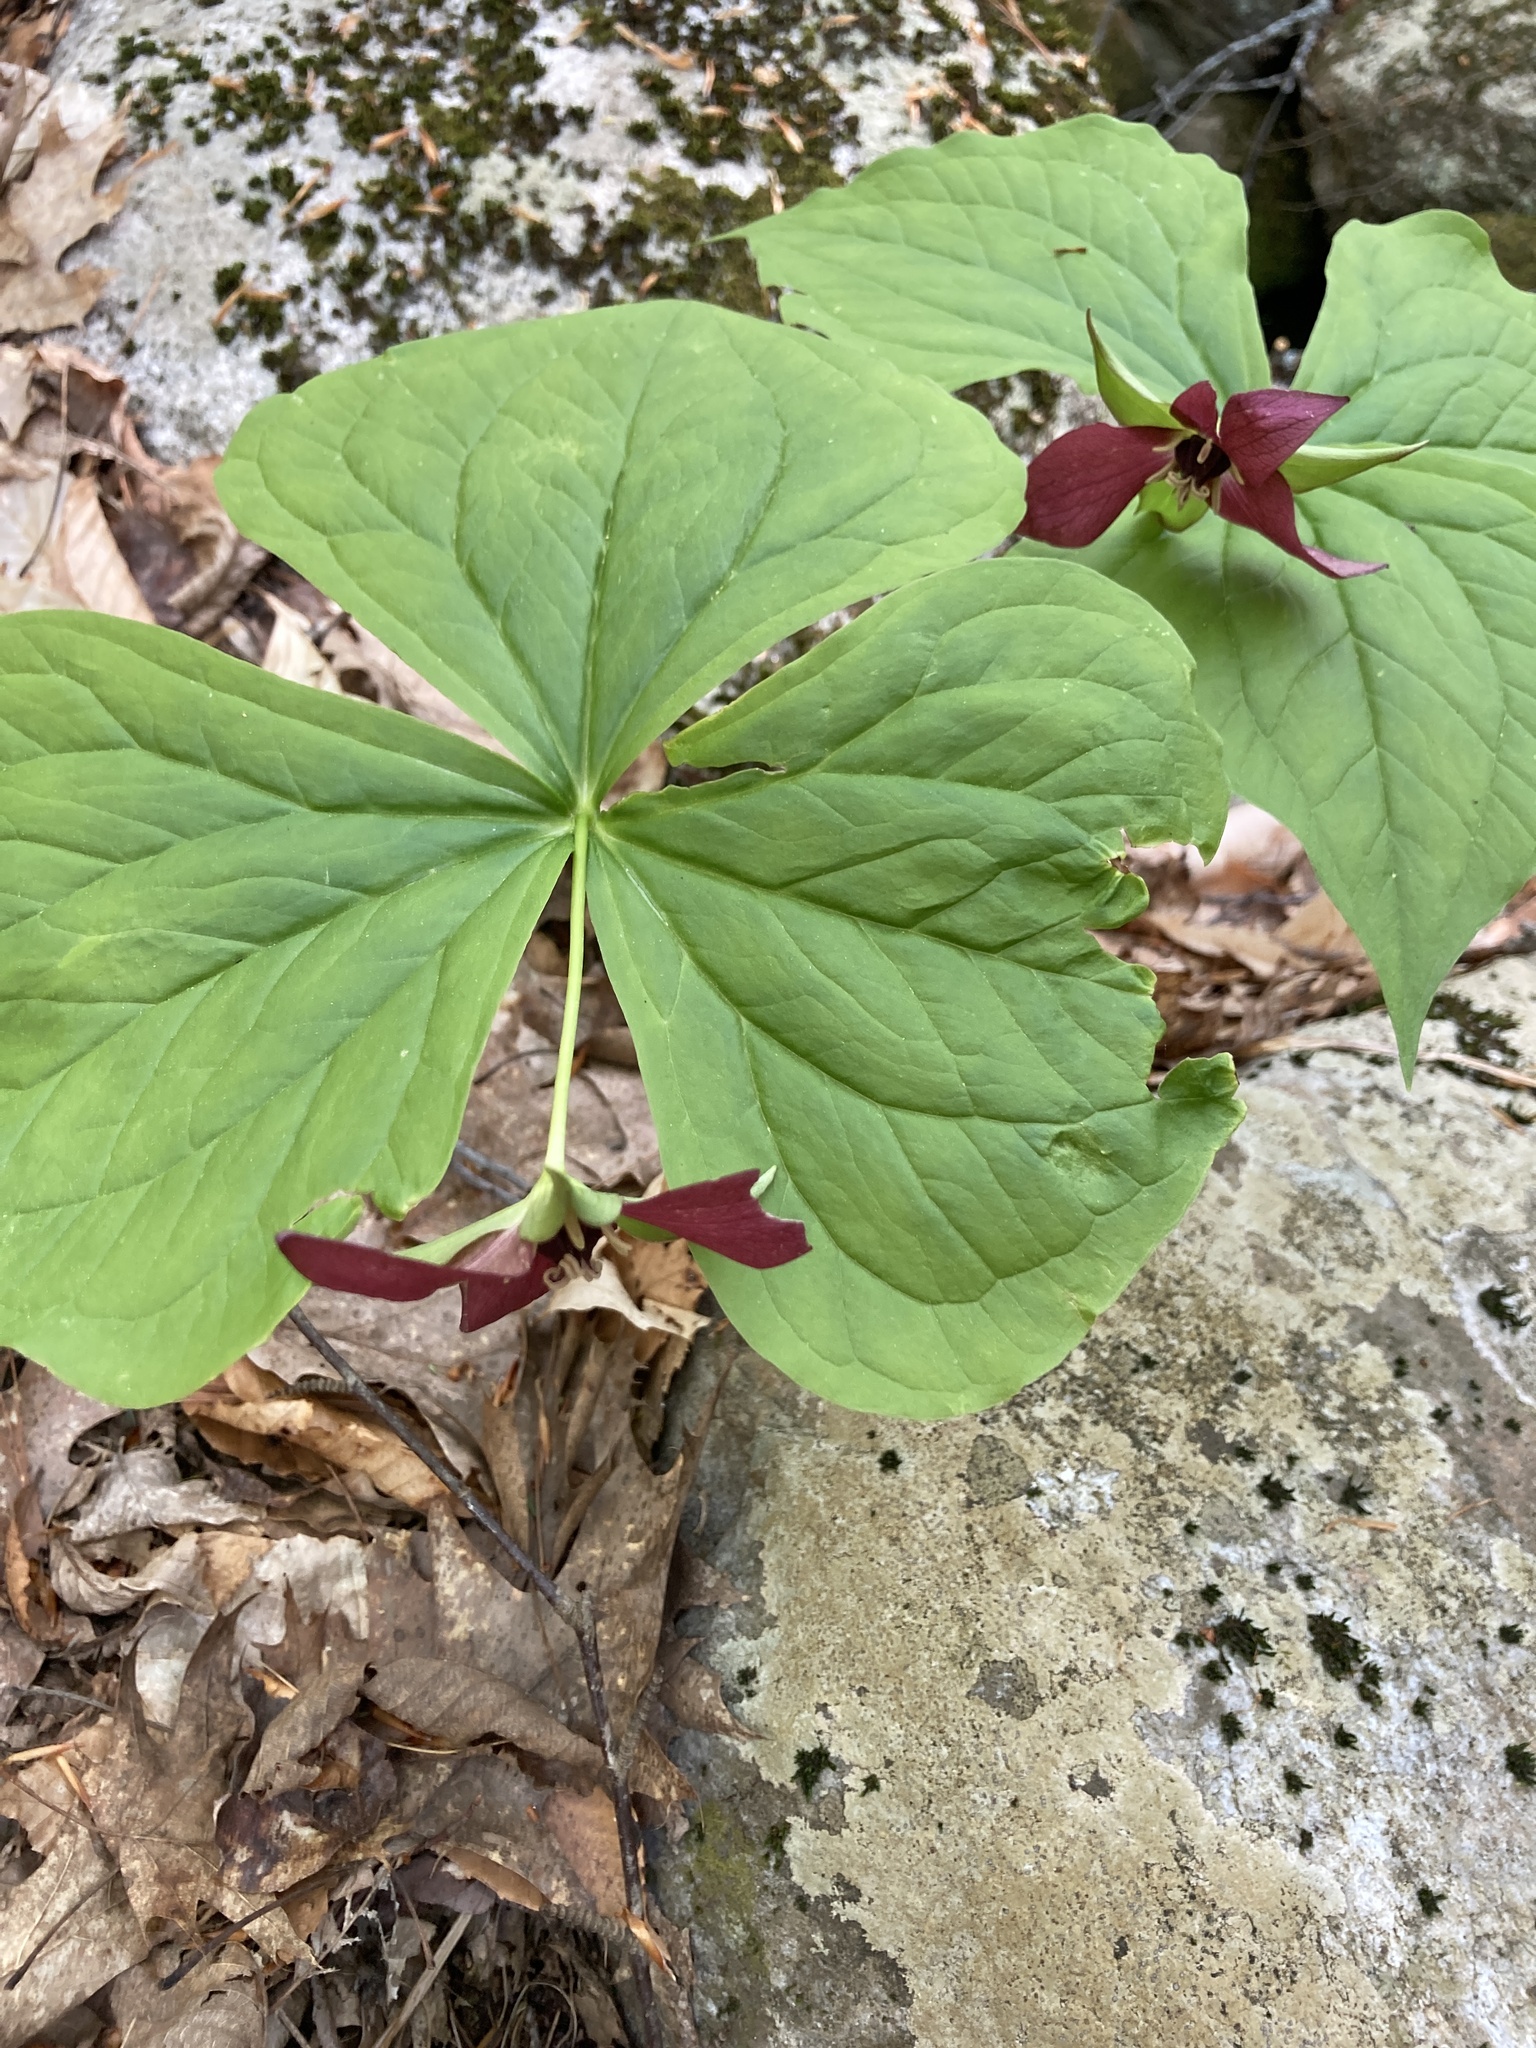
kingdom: Plantae
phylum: Tracheophyta
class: Liliopsida
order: Liliales
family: Melanthiaceae
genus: Trillium
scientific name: Trillium erectum
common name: Purple trillium
